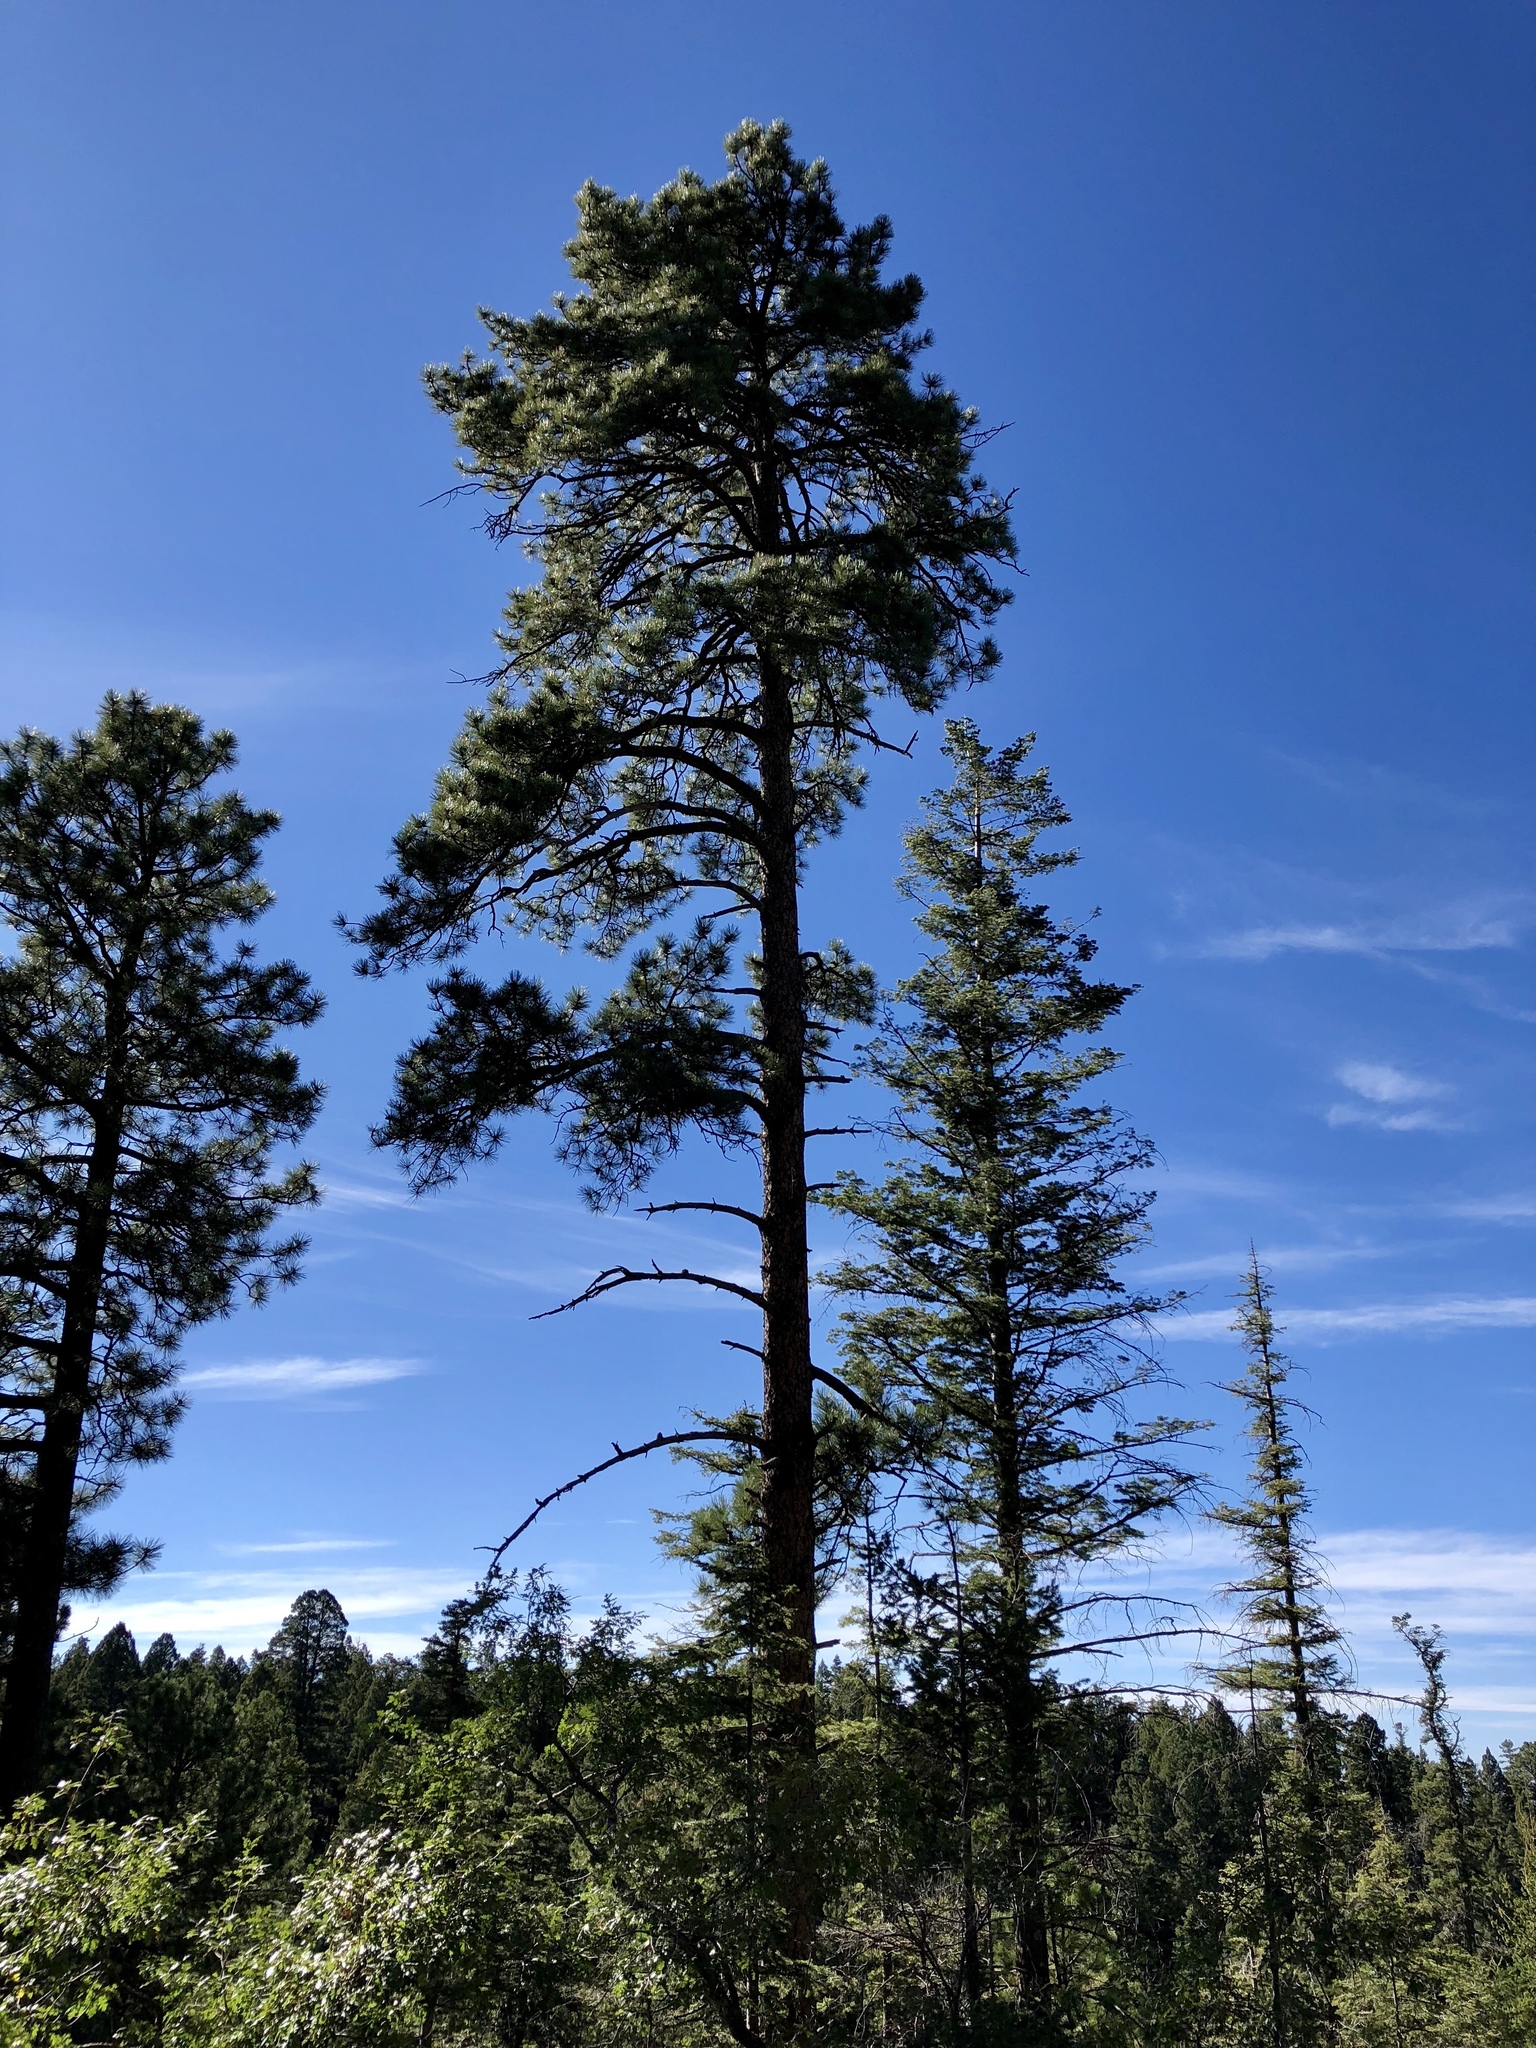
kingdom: Plantae
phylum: Tracheophyta
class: Pinopsida
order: Pinales
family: Pinaceae
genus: Pinus
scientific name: Pinus ponderosa
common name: Western yellow-pine
